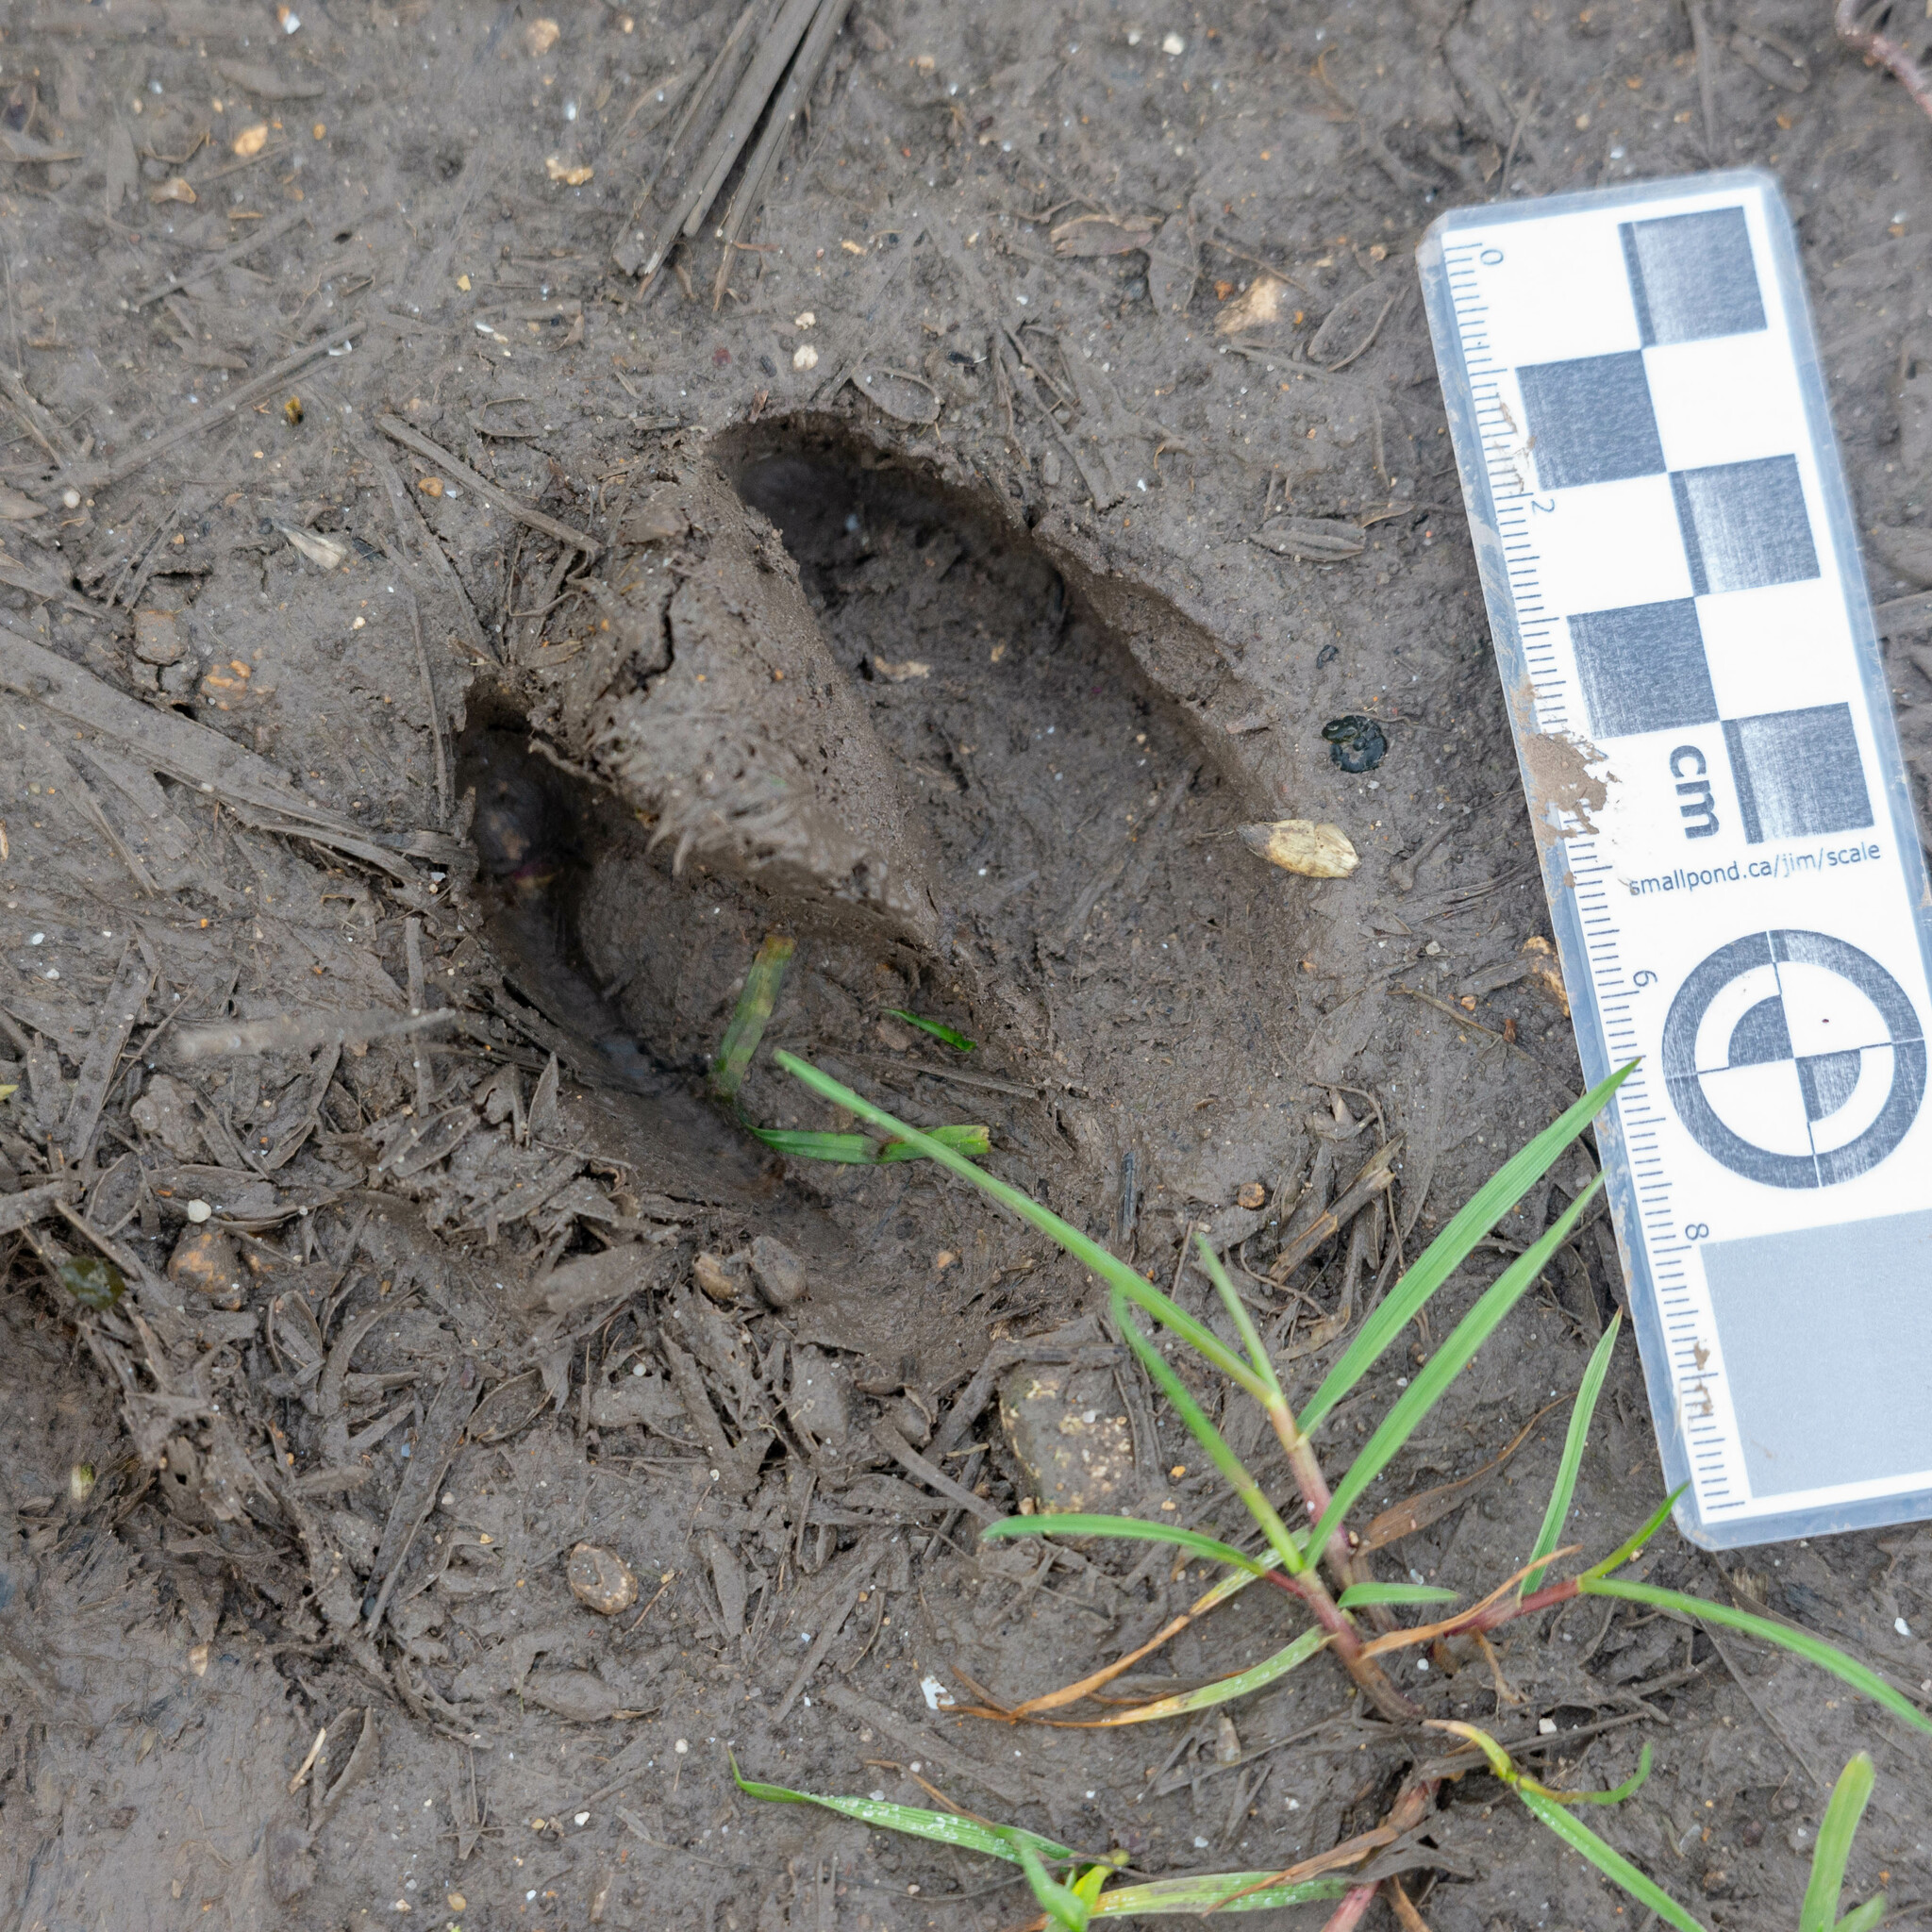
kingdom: Animalia
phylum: Chordata
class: Mammalia
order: Artiodactyla
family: Suidae
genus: Sus
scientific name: Sus scrofa
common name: Wild boar
